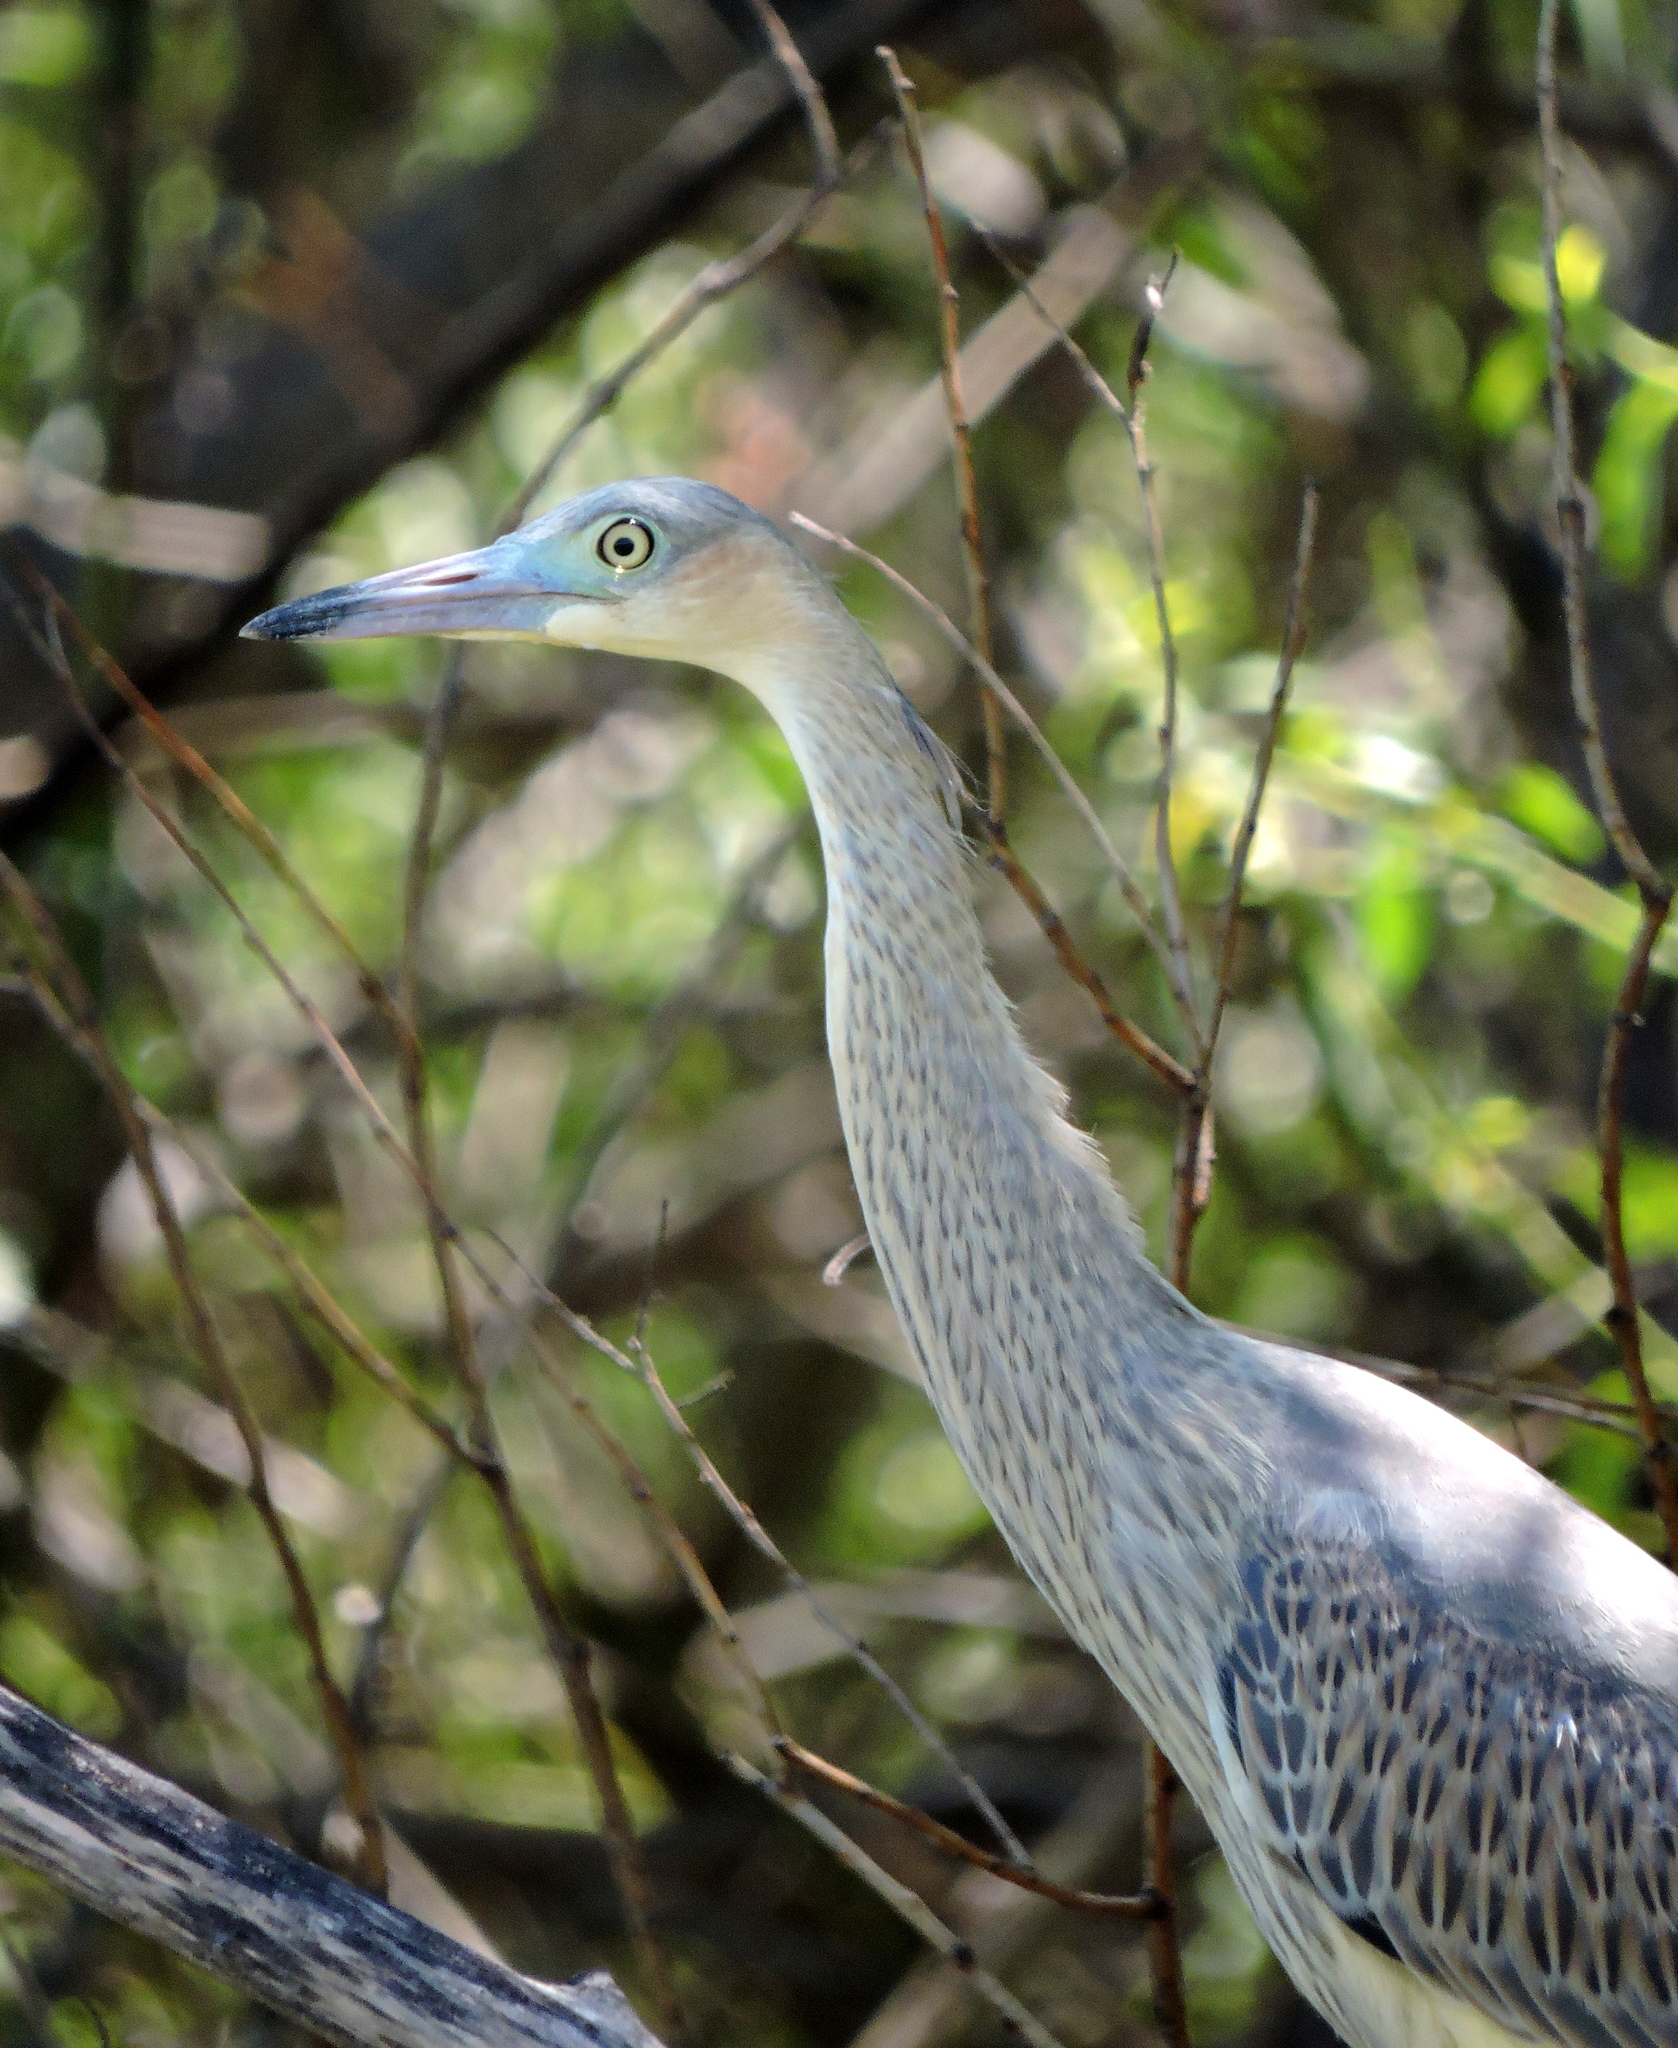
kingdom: Animalia
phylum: Chordata
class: Aves
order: Pelecaniformes
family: Ardeidae
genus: Syrigma
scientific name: Syrigma sibilatrix
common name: Whistling heron
